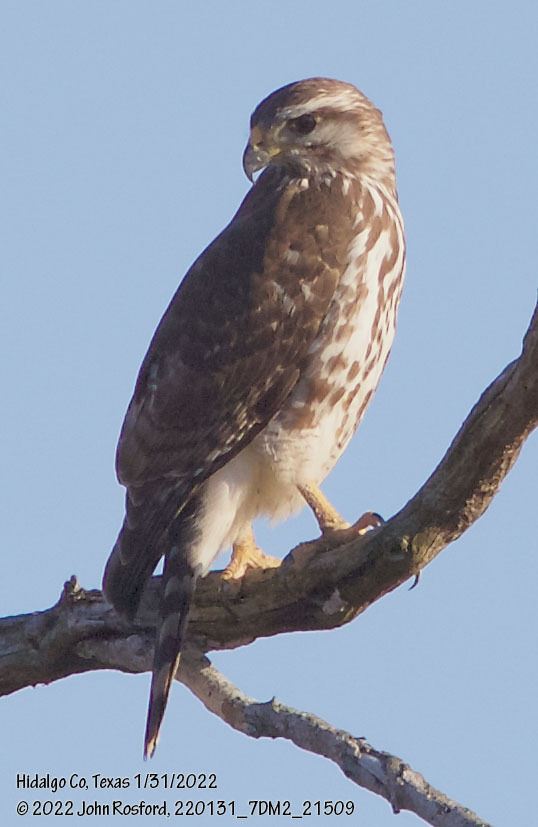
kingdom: Animalia
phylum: Chordata
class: Aves
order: Accipitriformes
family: Accipitridae
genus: Buteo
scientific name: Buteo nitidus
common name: Grey-lined hawk
